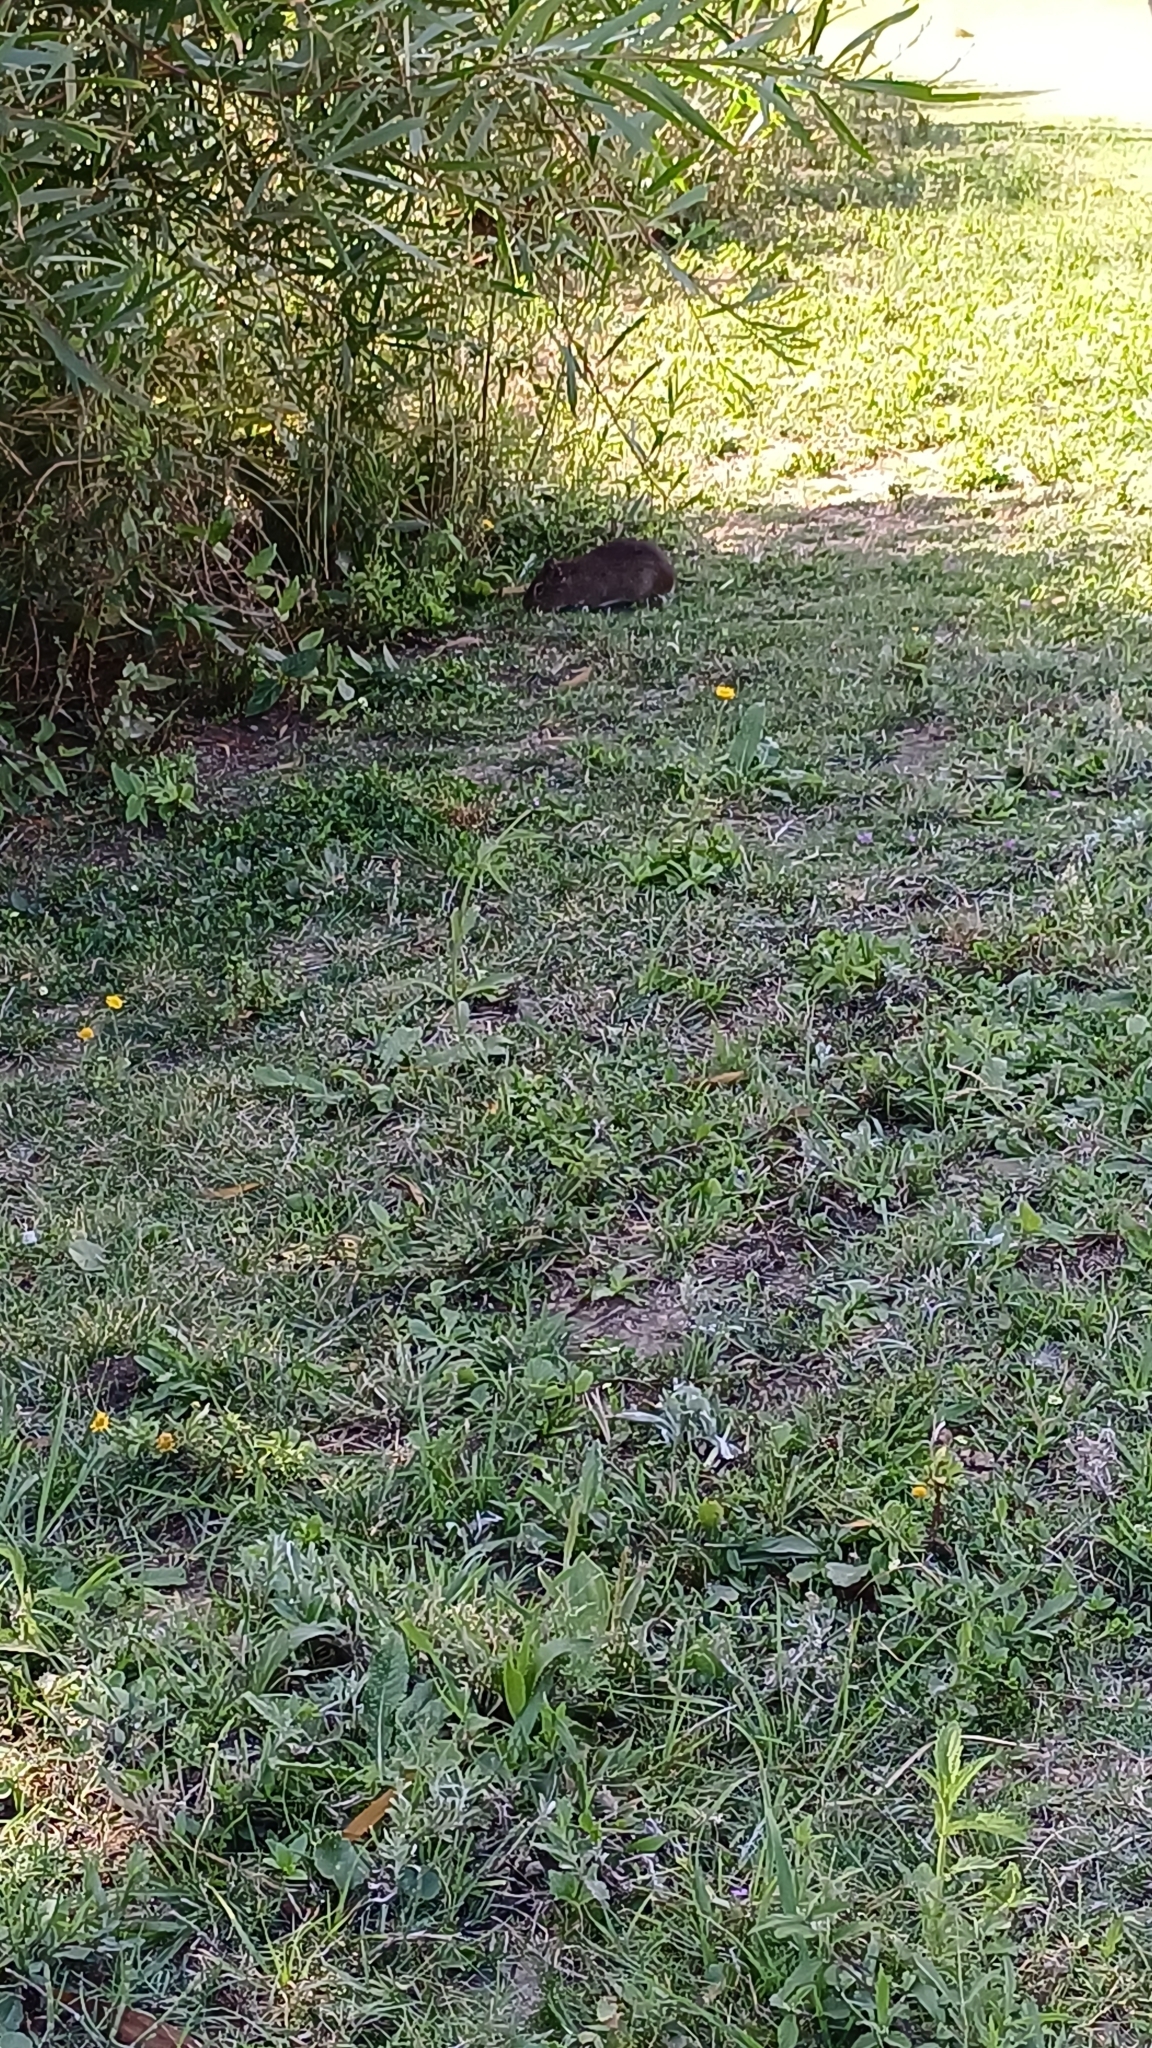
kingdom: Animalia
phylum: Chordata
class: Mammalia
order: Rodentia
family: Caviidae
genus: Cavia
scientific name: Cavia aperea
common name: Brazilian guinea pig
